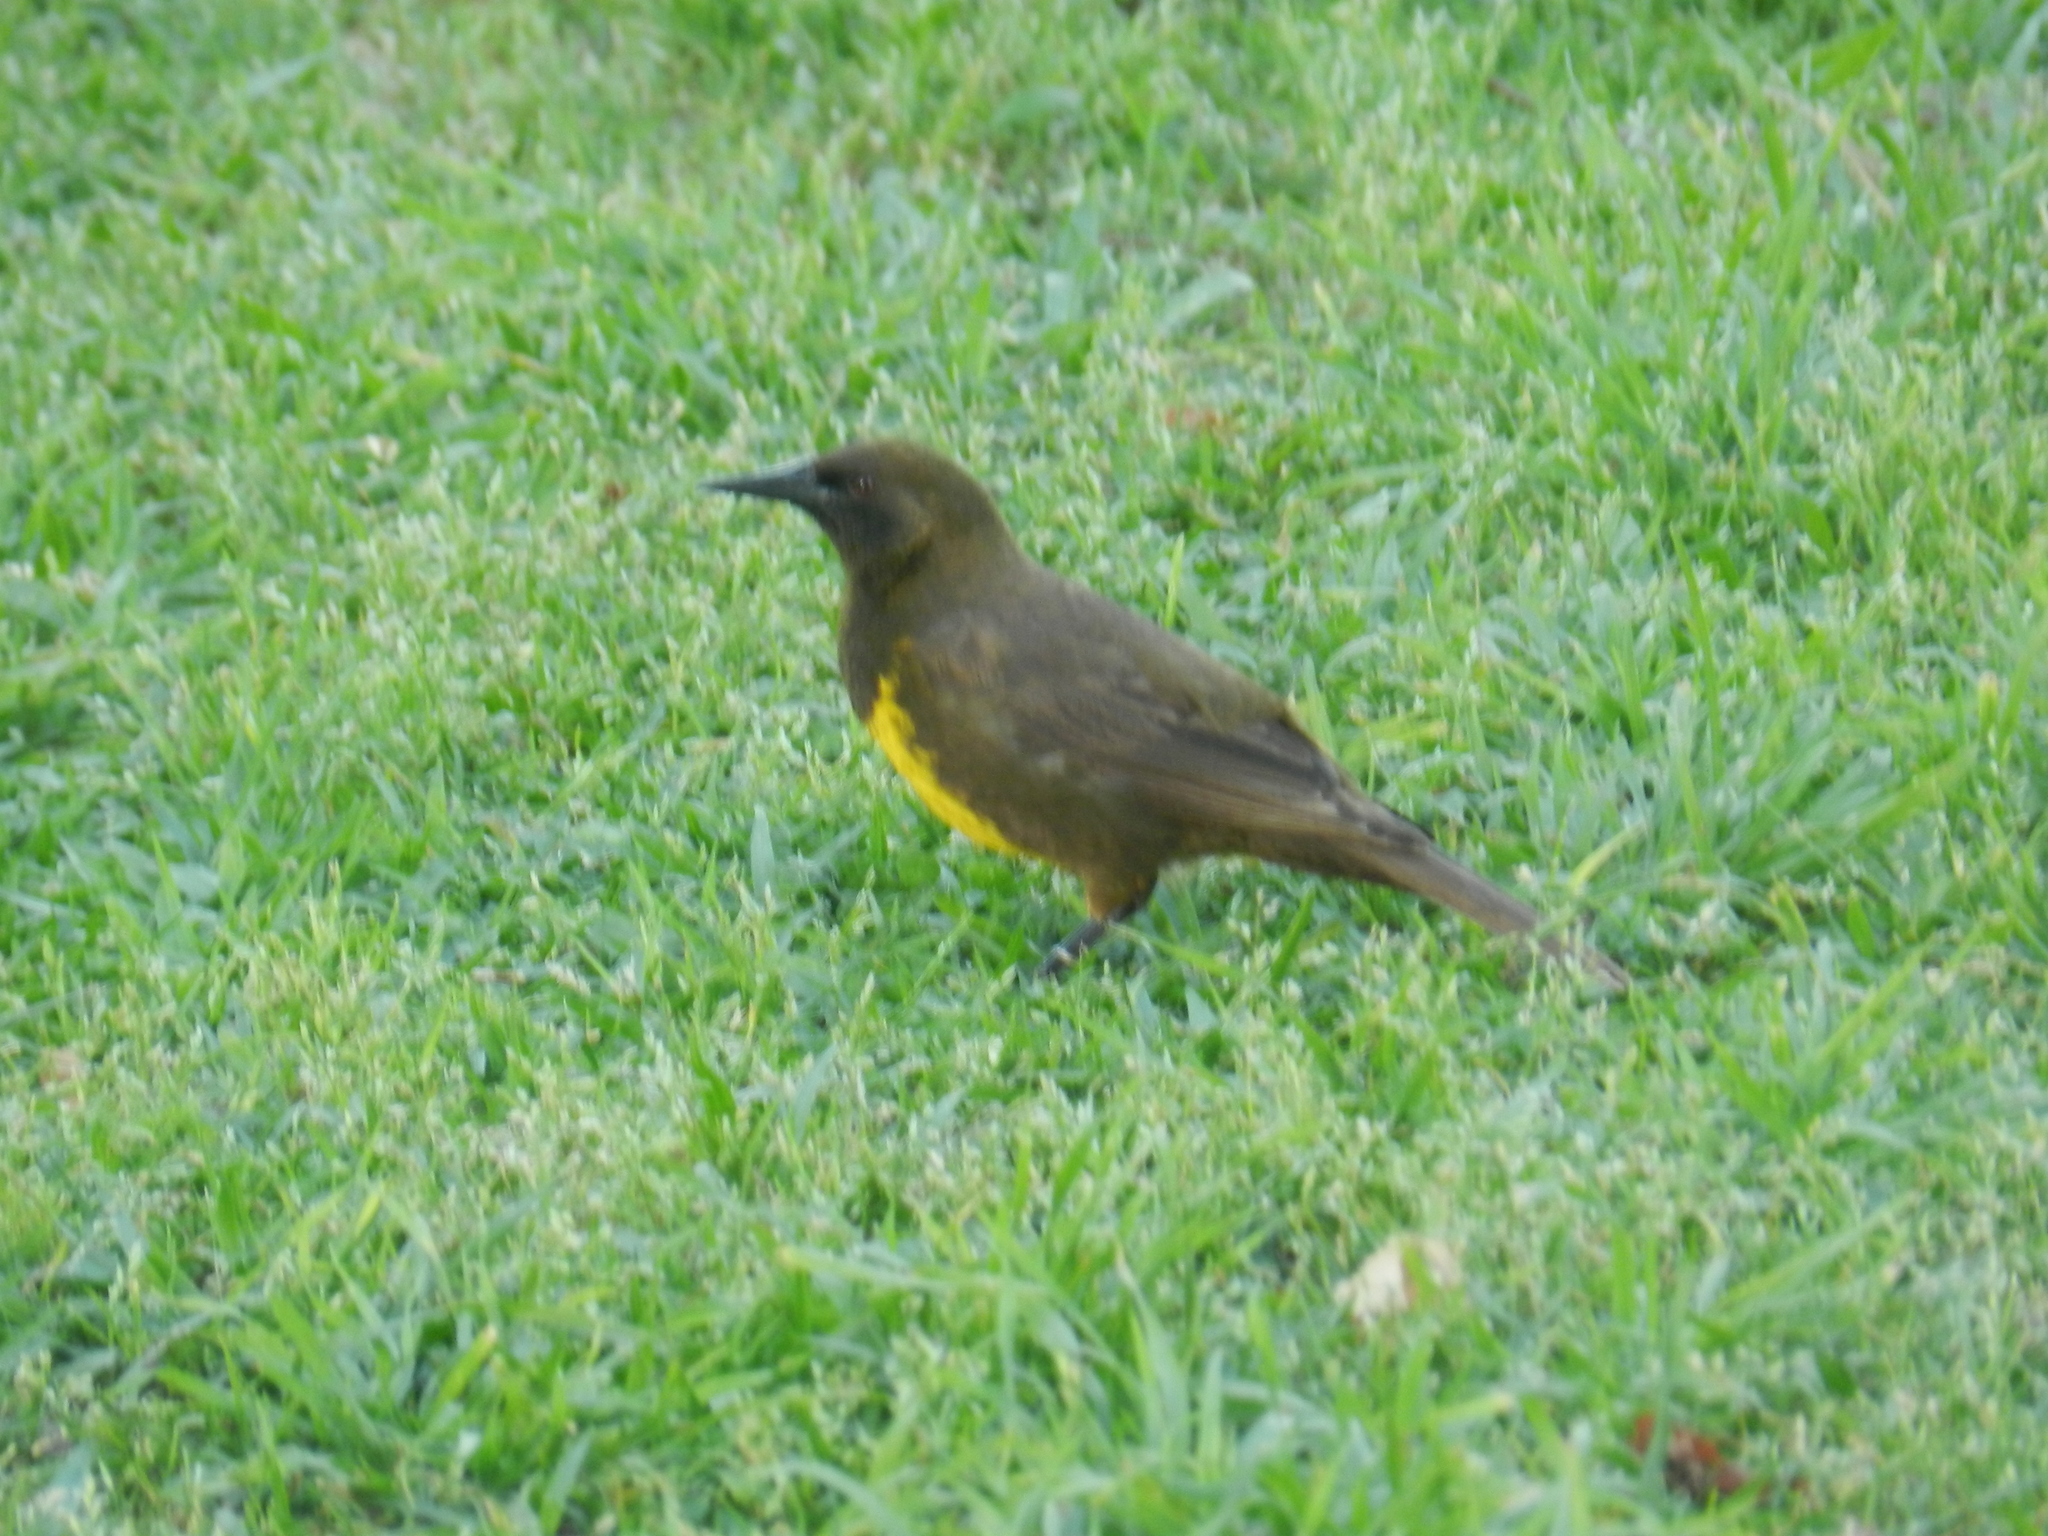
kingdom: Animalia
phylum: Chordata
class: Aves
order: Passeriformes
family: Icteridae
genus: Pseudoleistes
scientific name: Pseudoleistes virescens
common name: Brown-and-yellow marshbird
